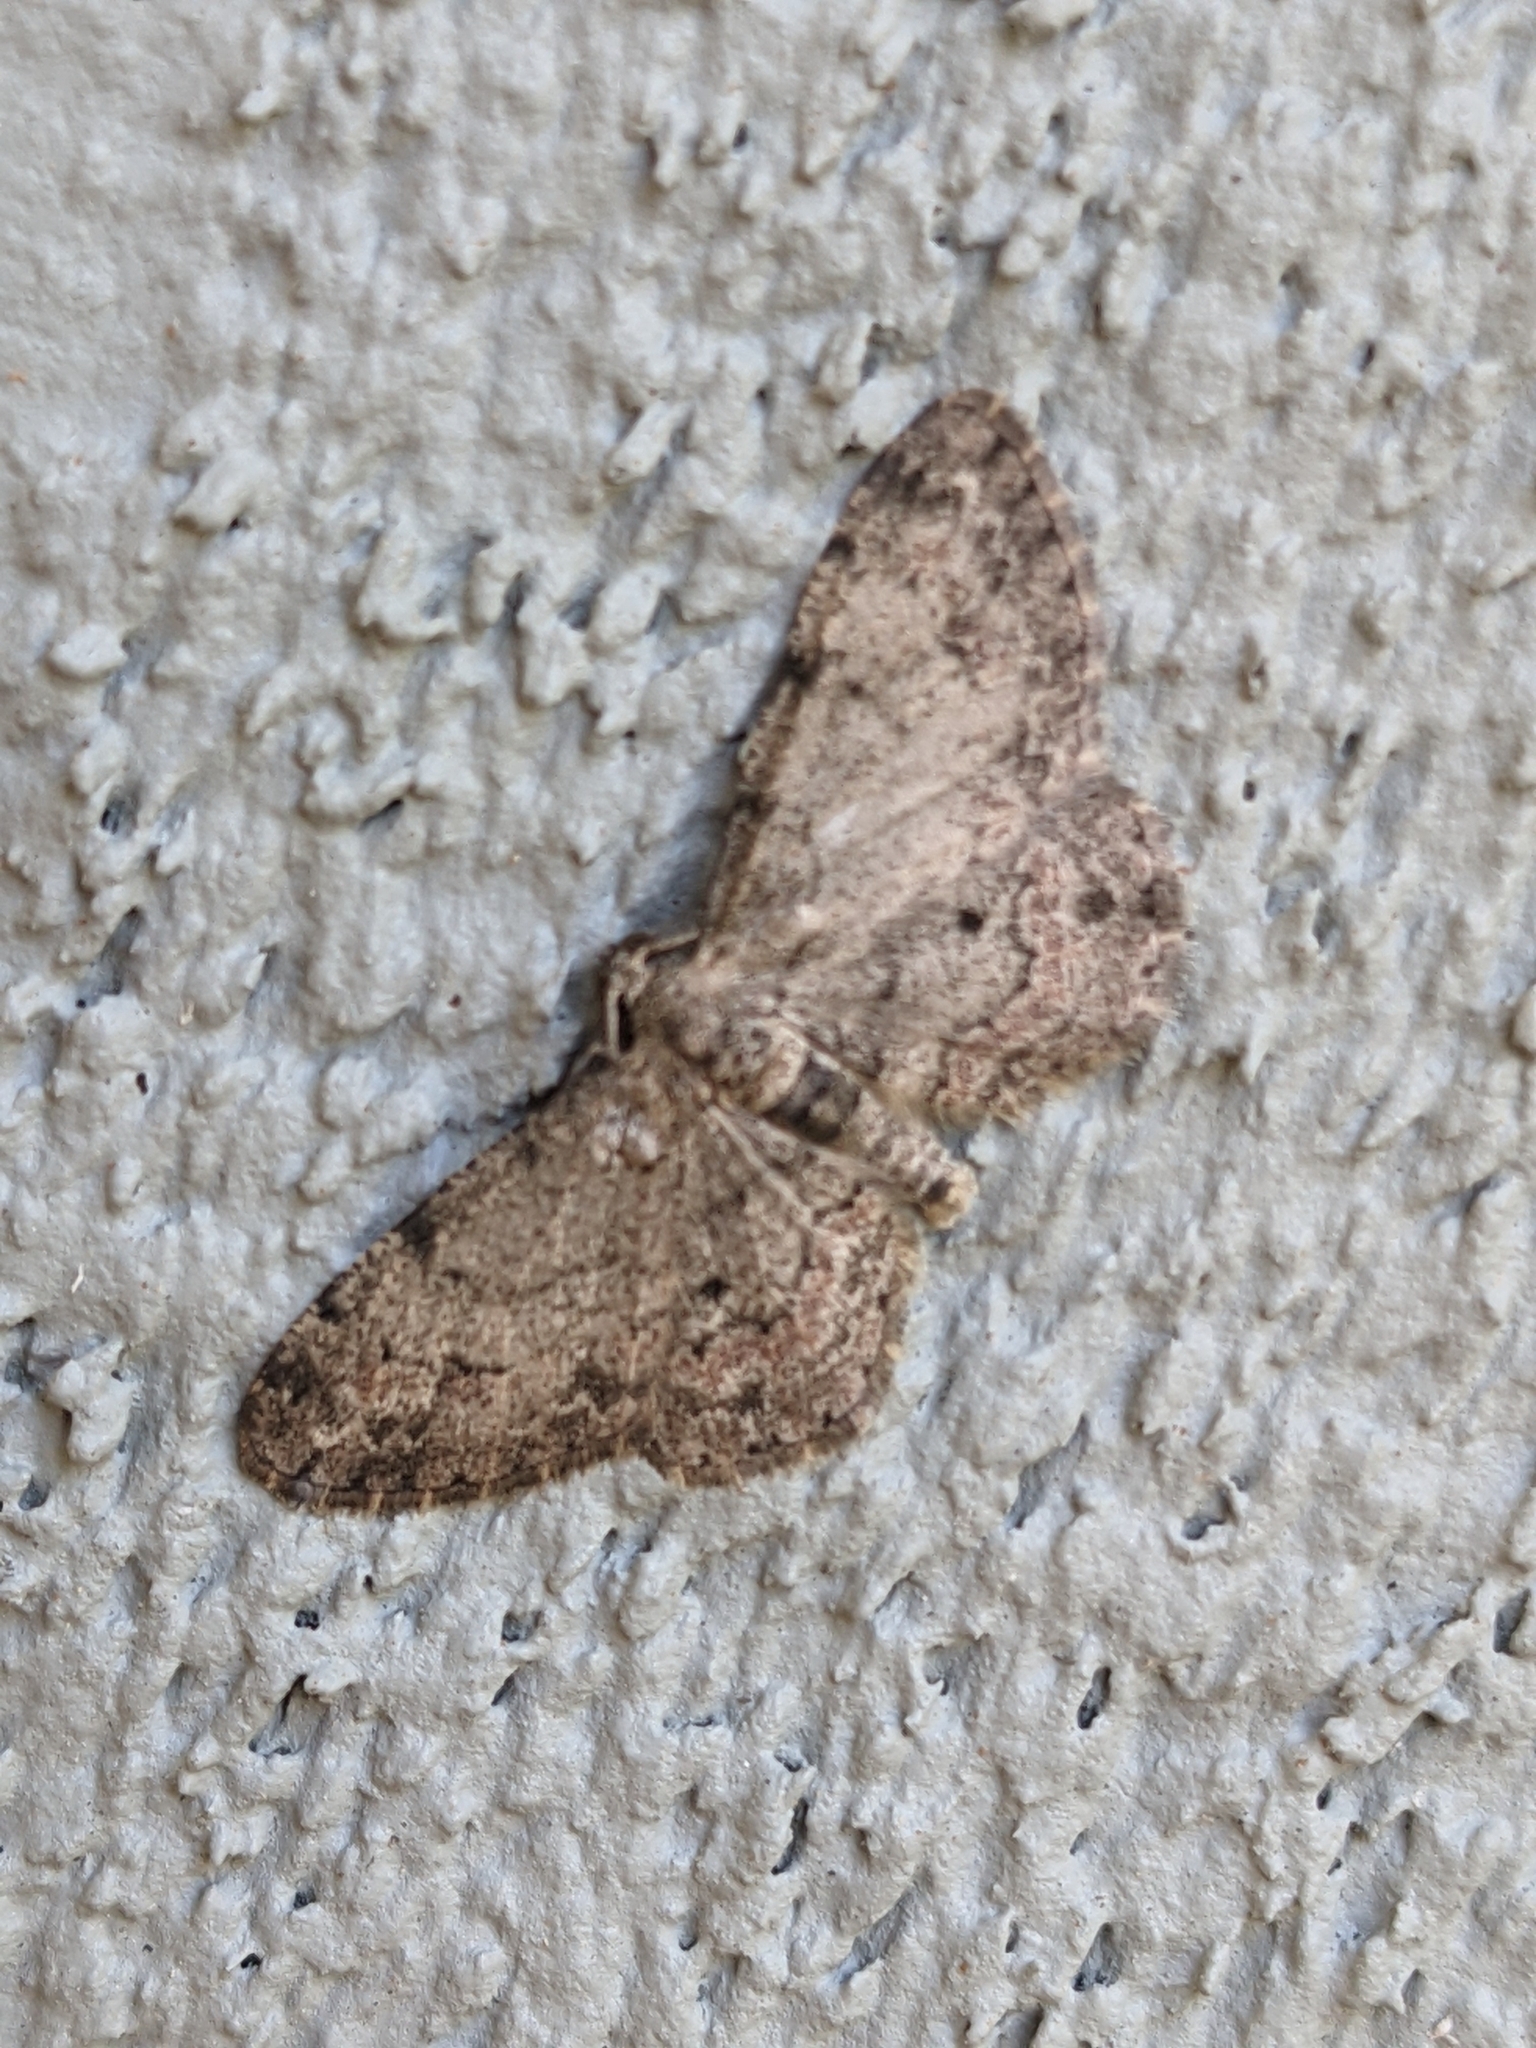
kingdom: Animalia
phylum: Arthropoda
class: Insecta
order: Lepidoptera
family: Geometridae
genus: Glenoides
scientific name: Glenoides texanaria
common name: Texas gray
